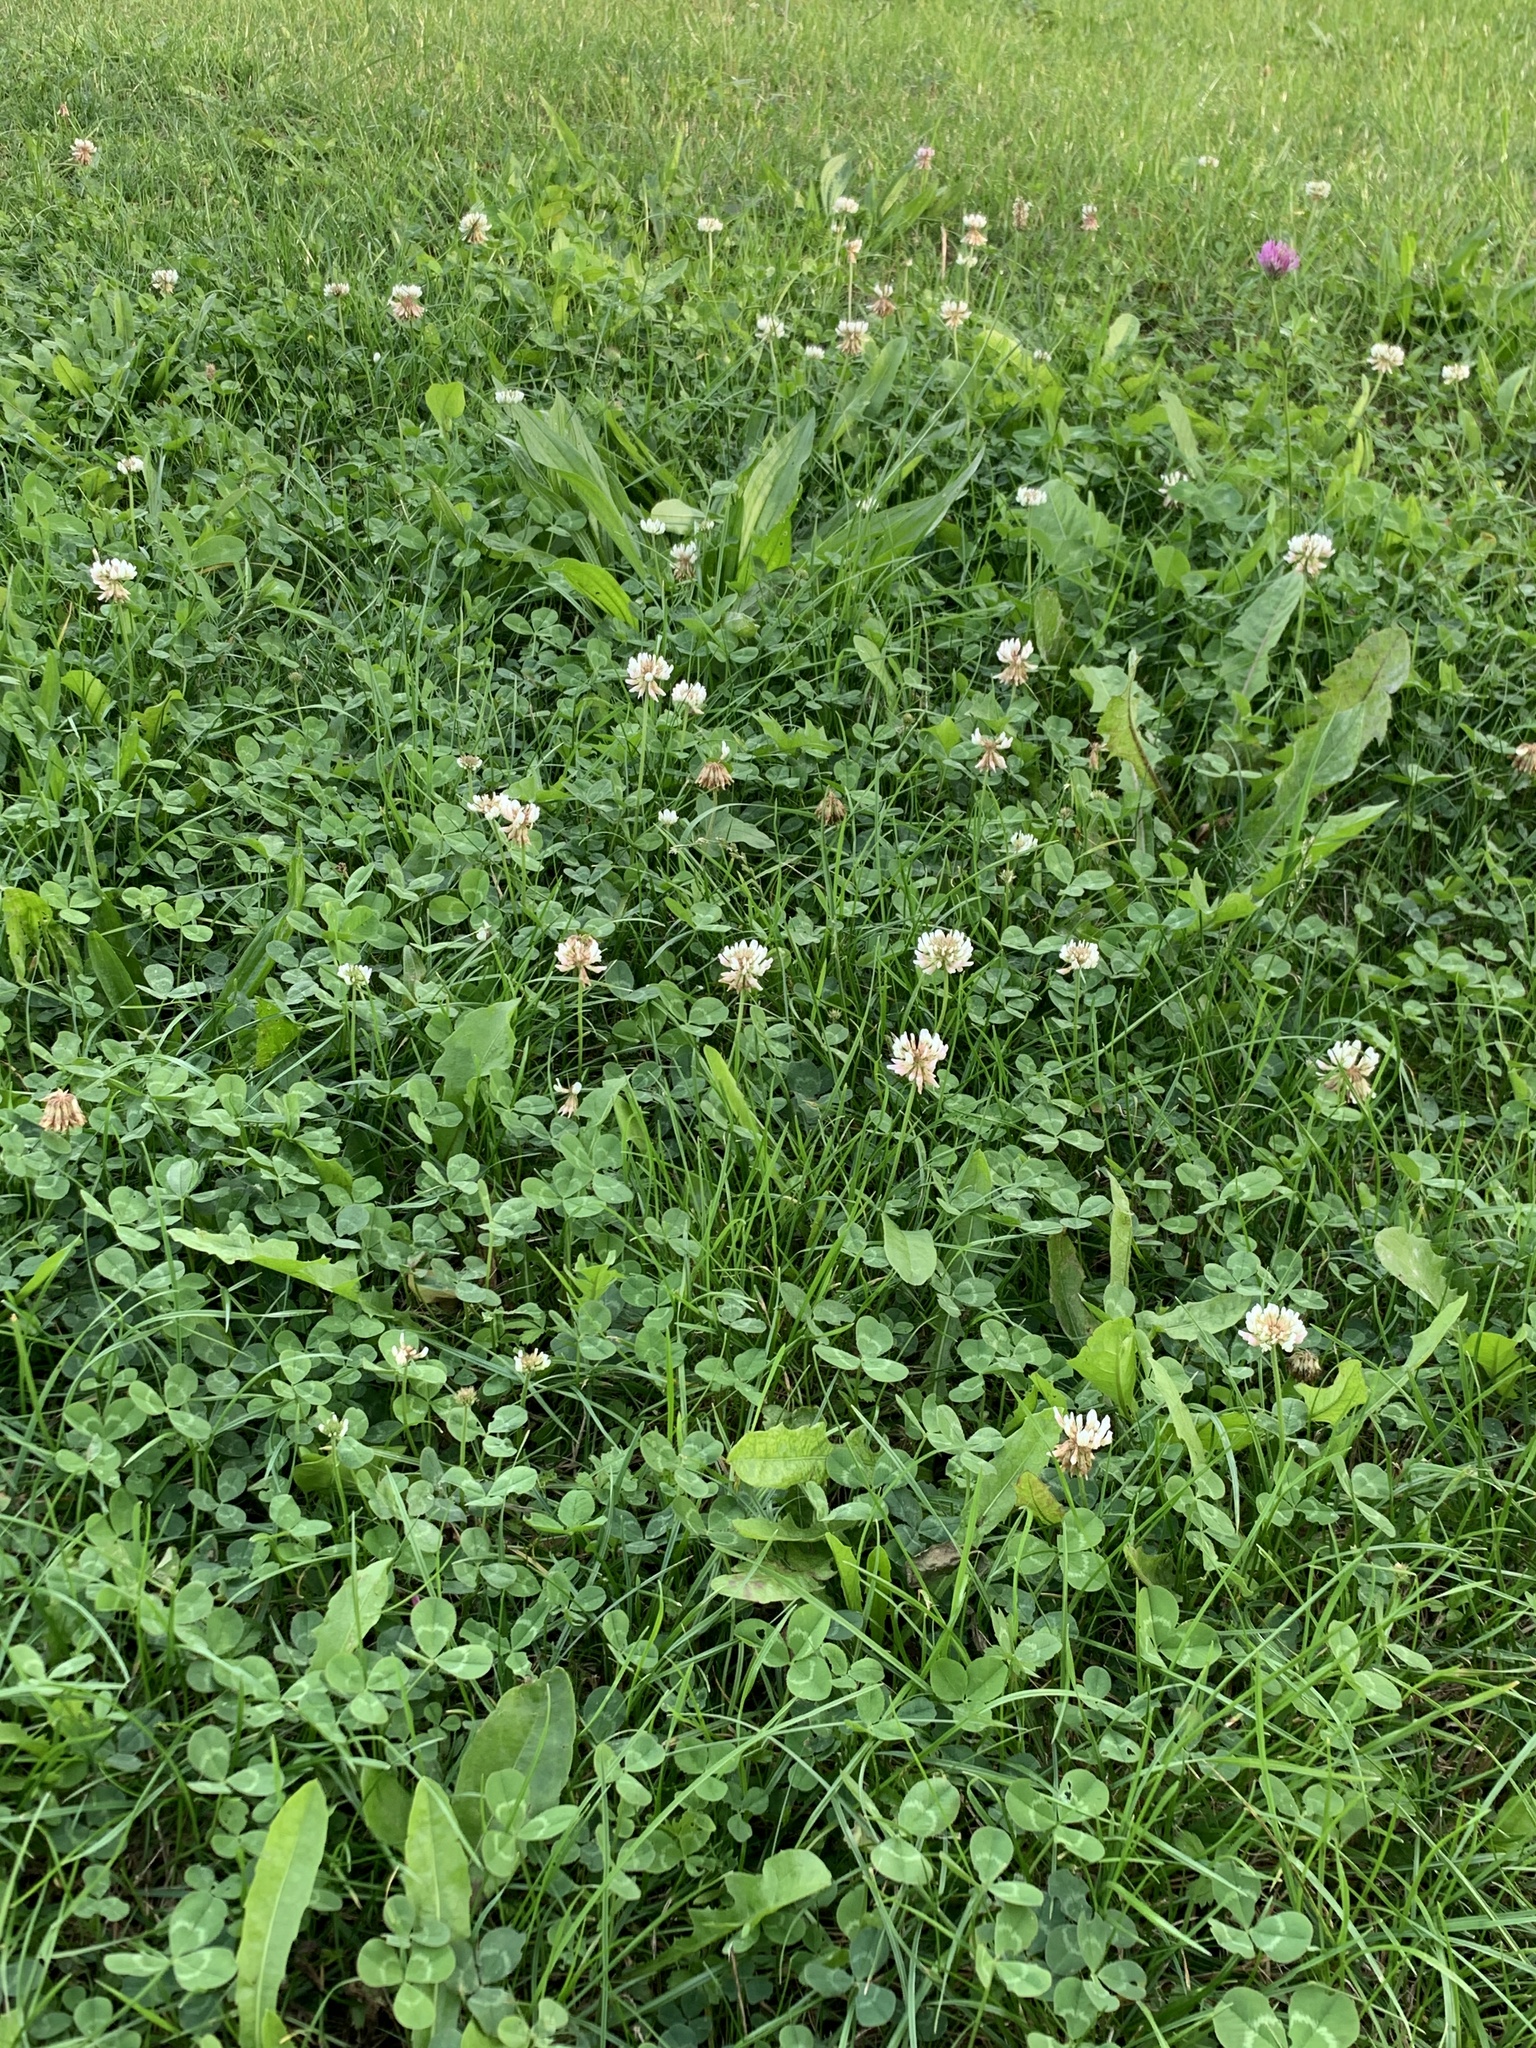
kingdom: Plantae
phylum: Tracheophyta
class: Magnoliopsida
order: Fabales
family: Fabaceae
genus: Trifolium
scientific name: Trifolium repens
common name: White clover
